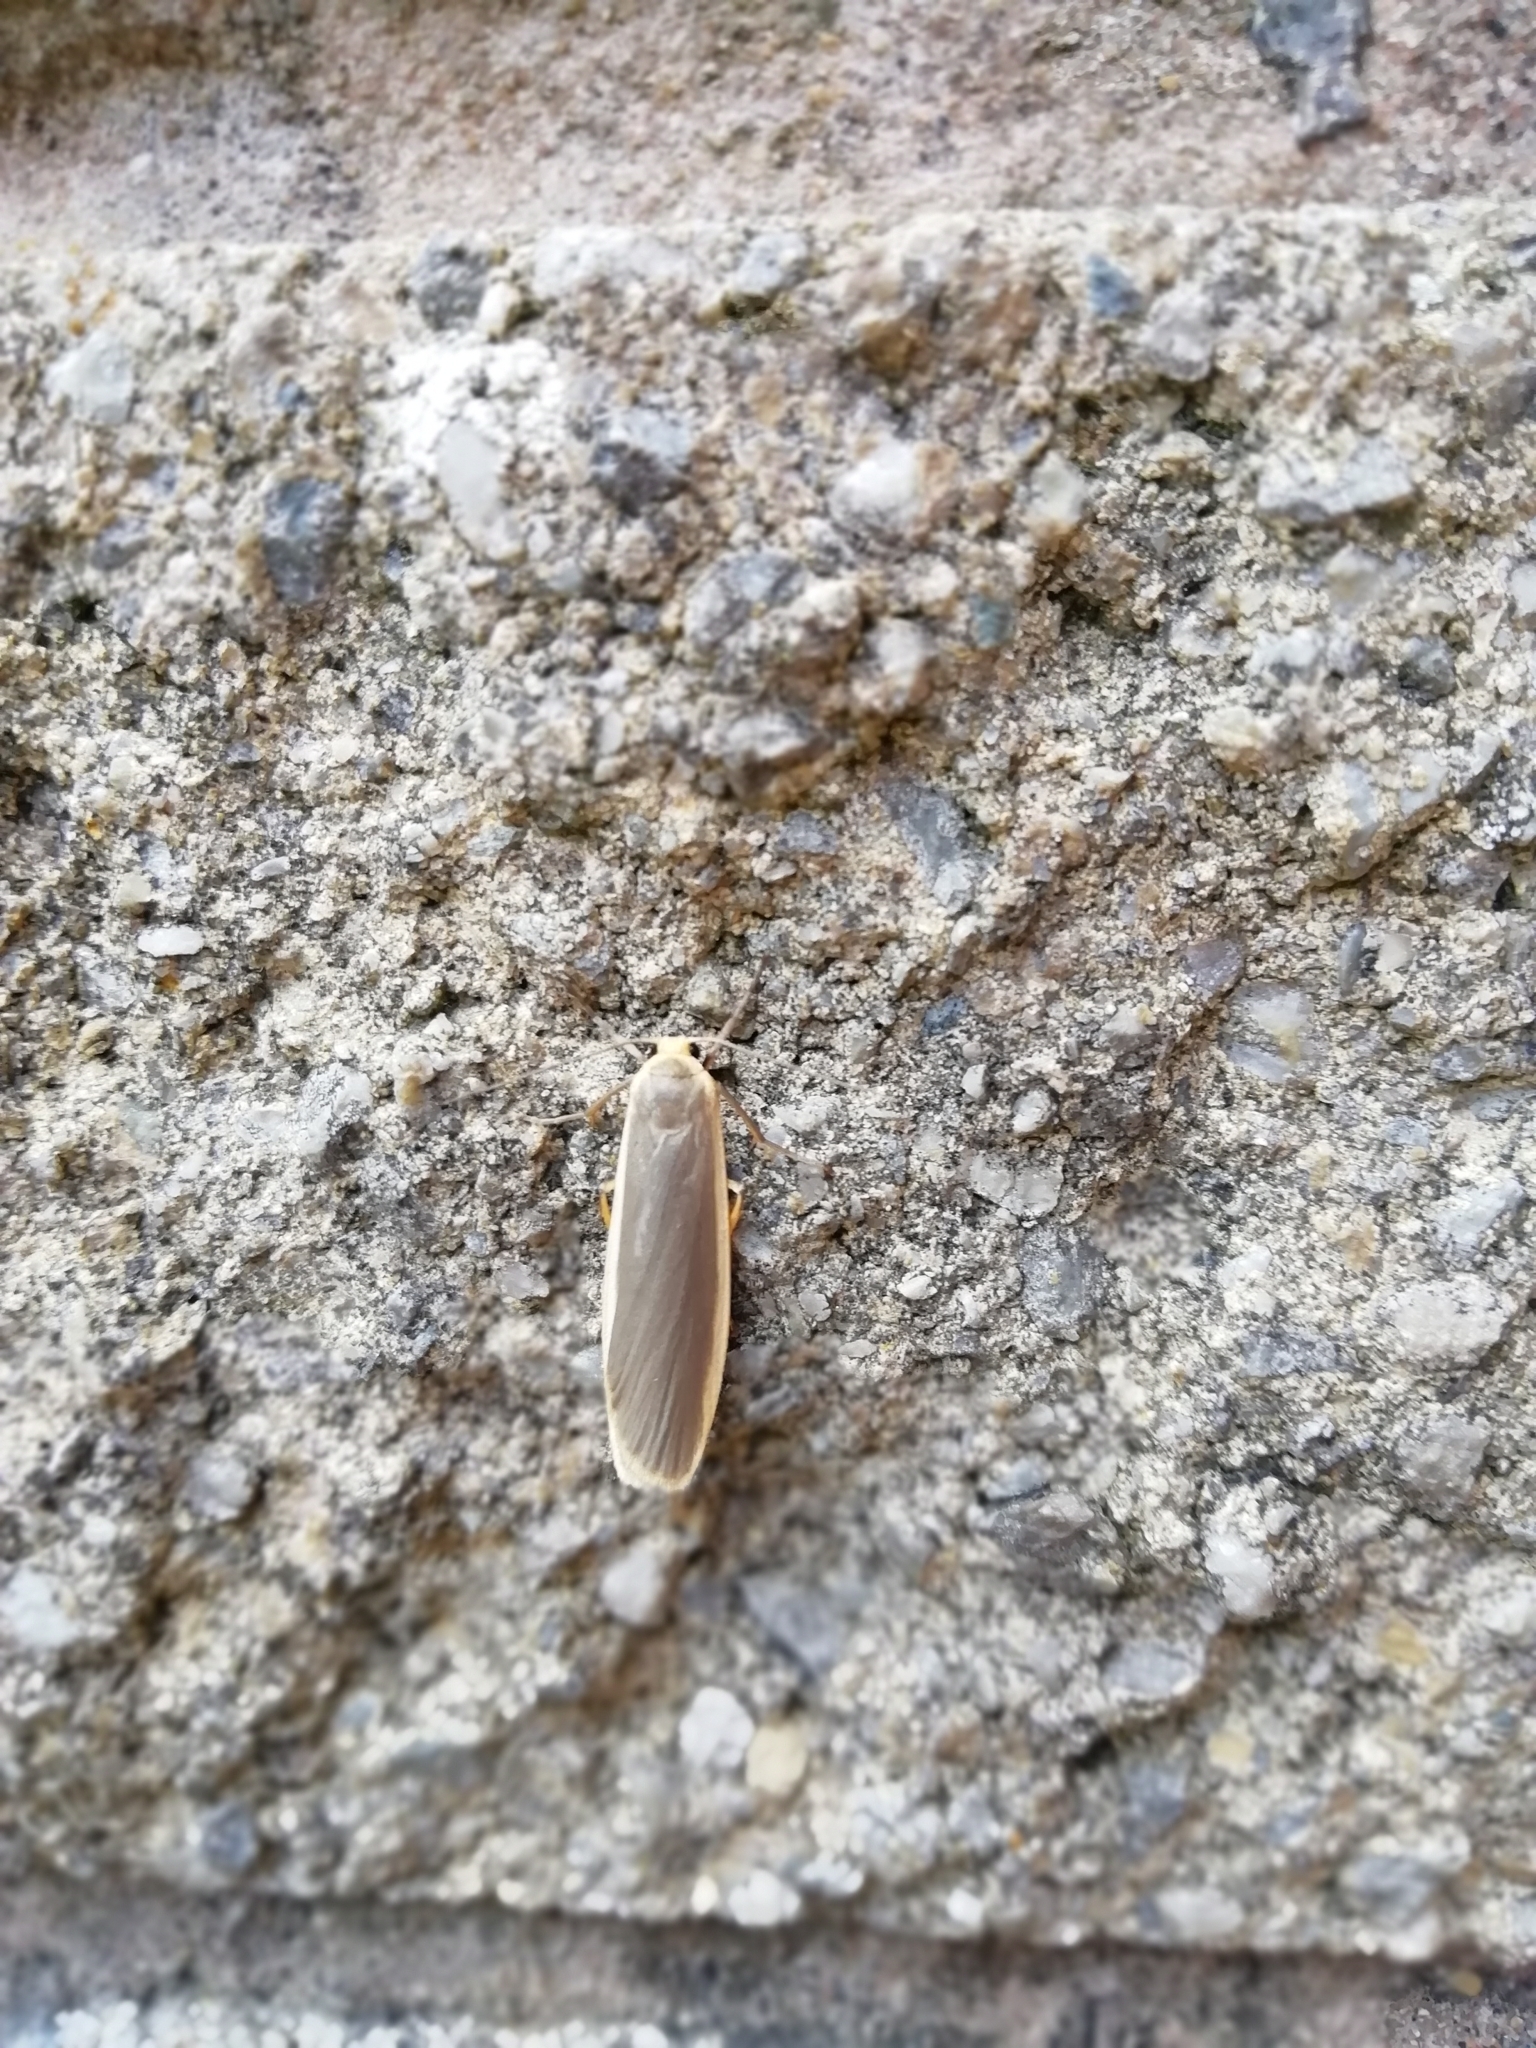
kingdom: Animalia
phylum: Arthropoda
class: Insecta
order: Lepidoptera
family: Erebidae
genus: Nyea
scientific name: Nyea lurideola
